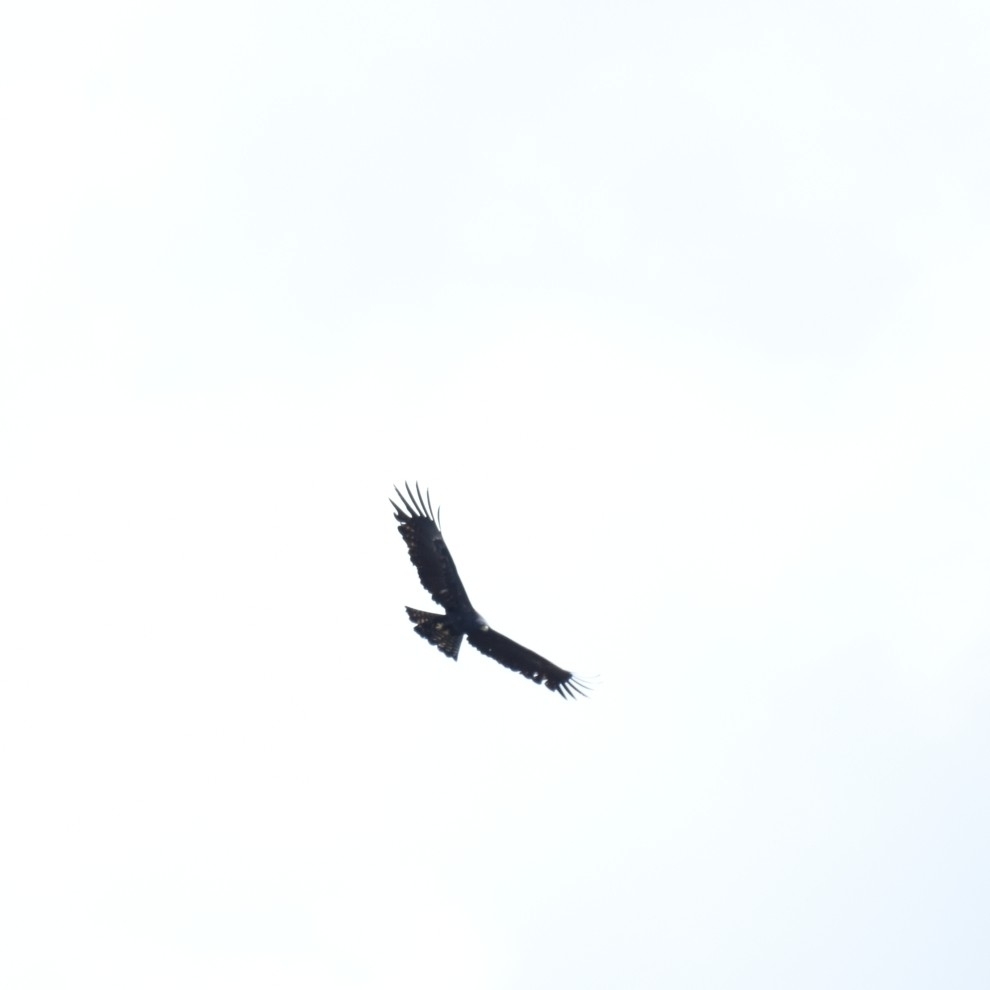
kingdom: Animalia
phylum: Chordata
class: Aves
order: Accipitriformes
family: Accipitridae
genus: Ictinaetus
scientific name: Ictinaetus malayensis
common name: Black eagle
